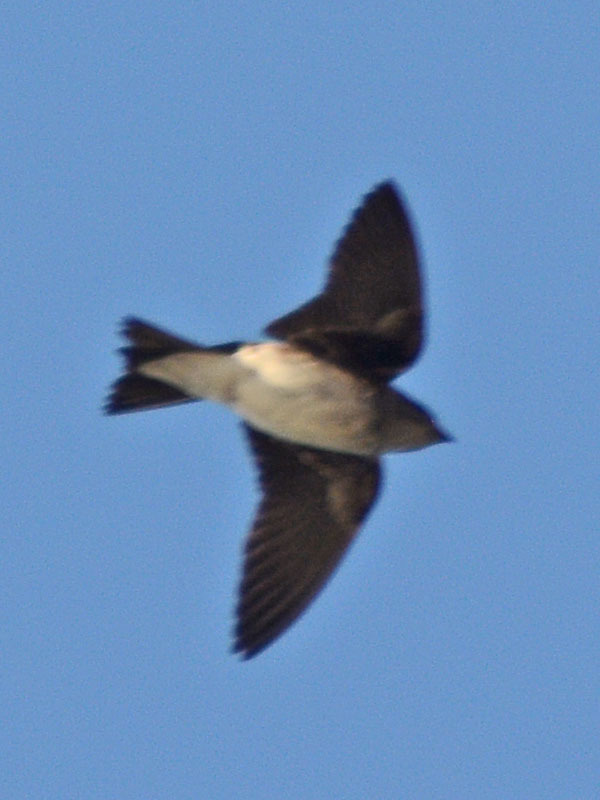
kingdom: Animalia
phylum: Chordata
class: Aves
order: Passeriformes
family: Hirundinidae
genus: Progne
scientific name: Progne chalybea
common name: Grey-breasted martin
